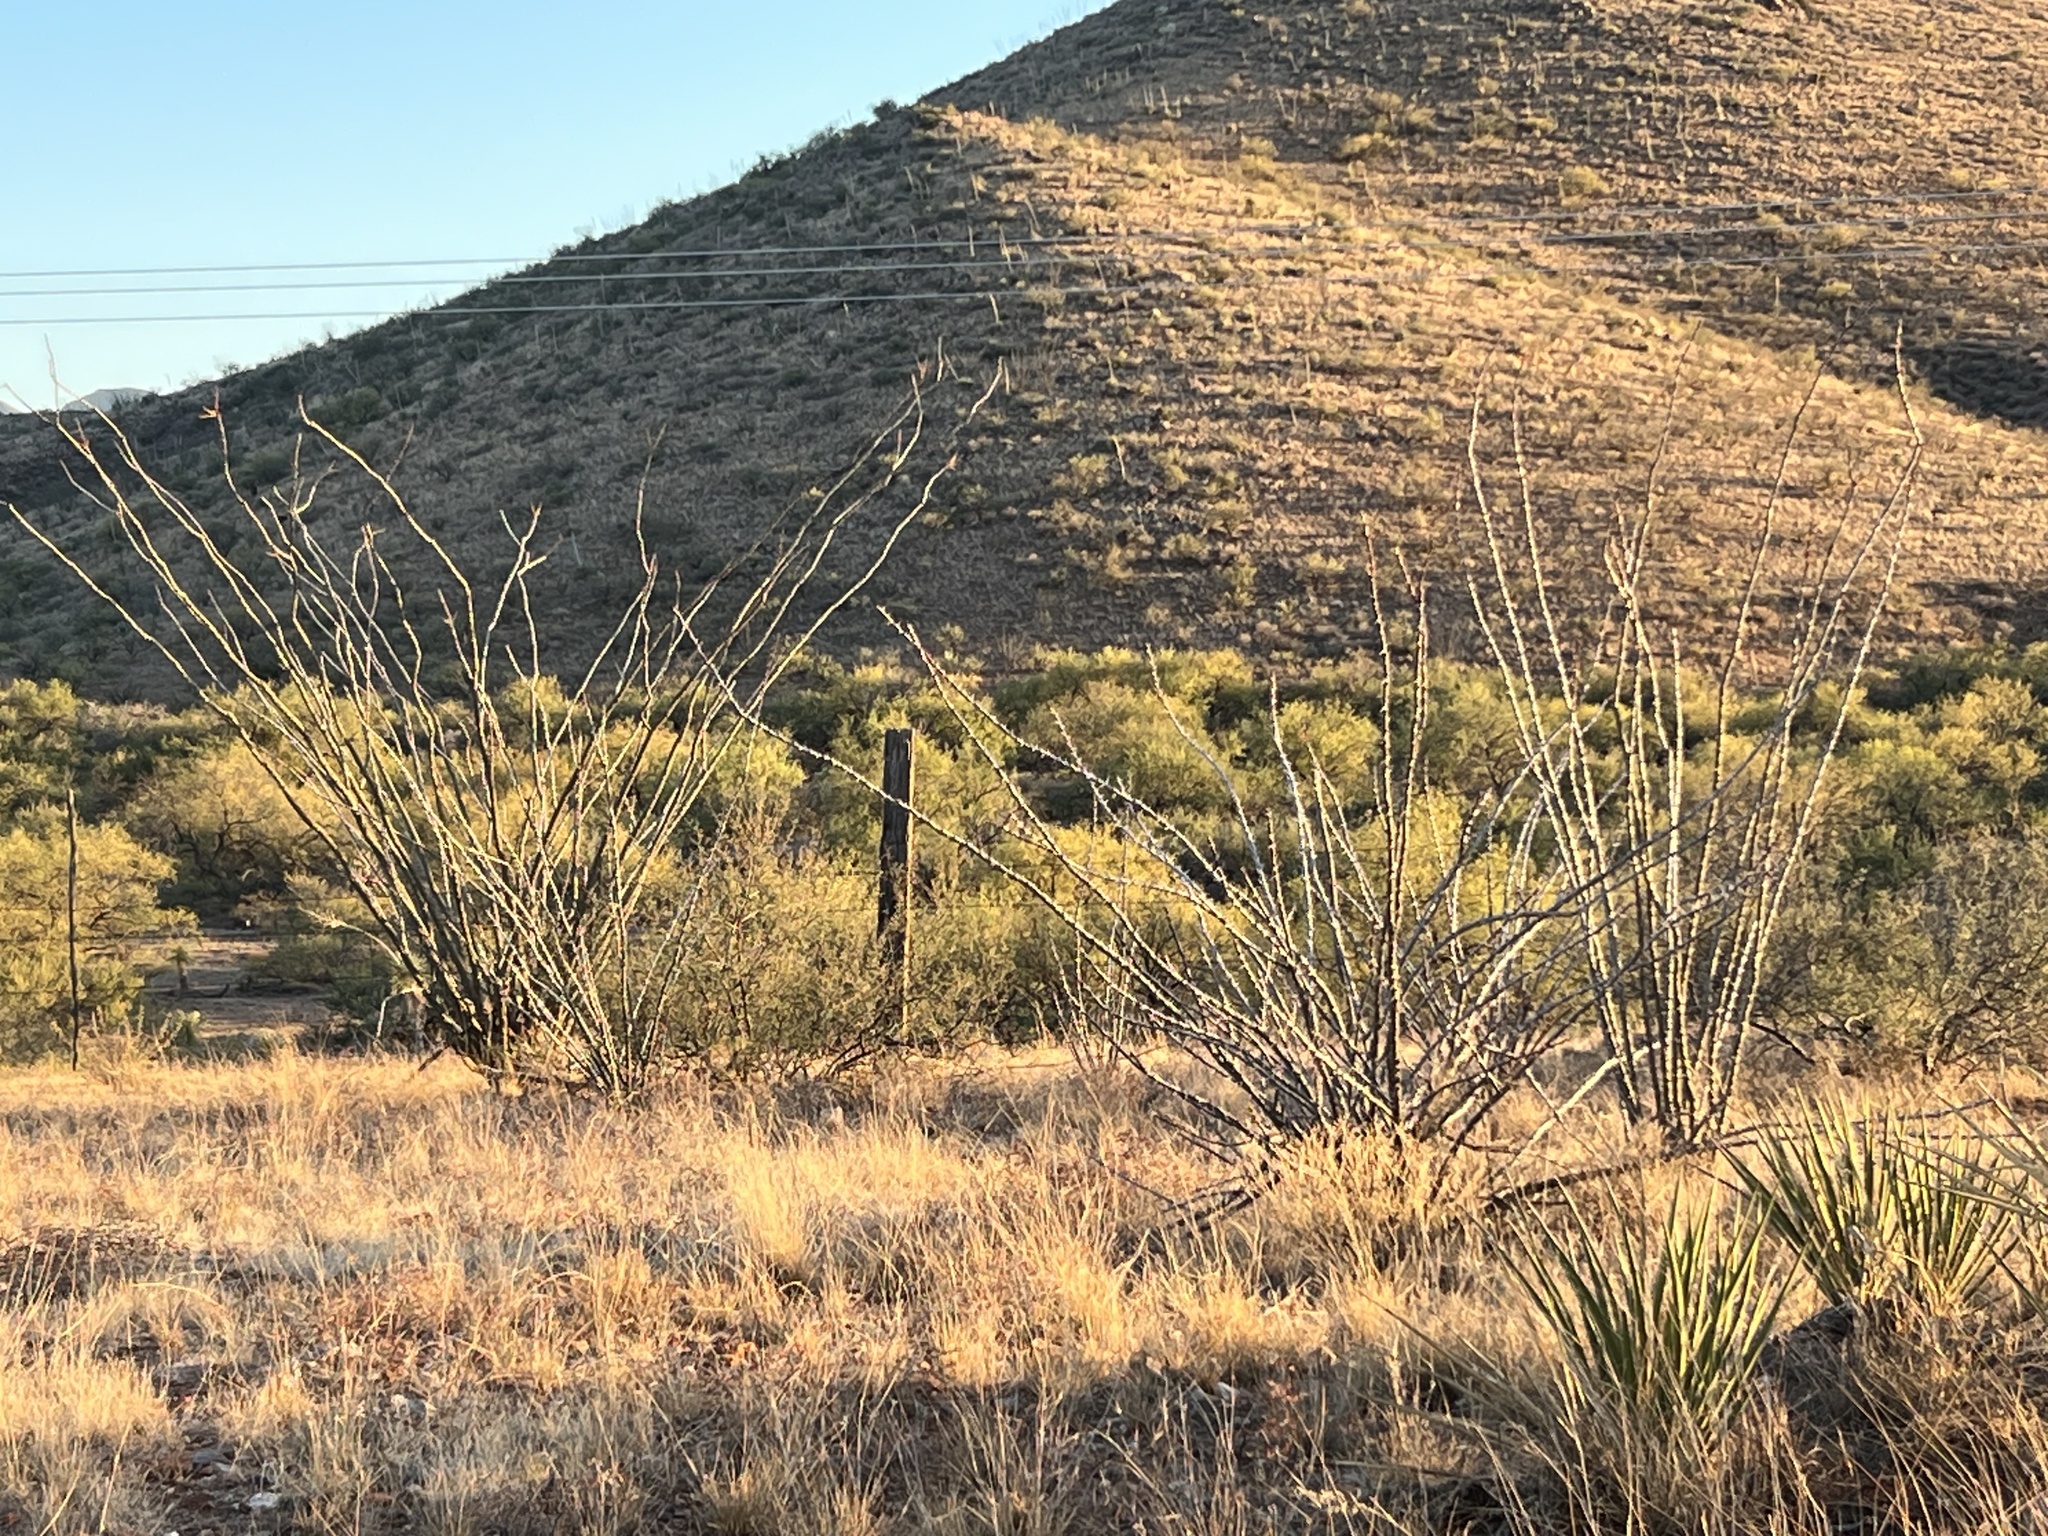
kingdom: Plantae
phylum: Tracheophyta
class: Magnoliopsida
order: Ericales
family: Fouquieriaceae
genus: Fouquieria
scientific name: Fouquieria splendens
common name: Vine-cactus
